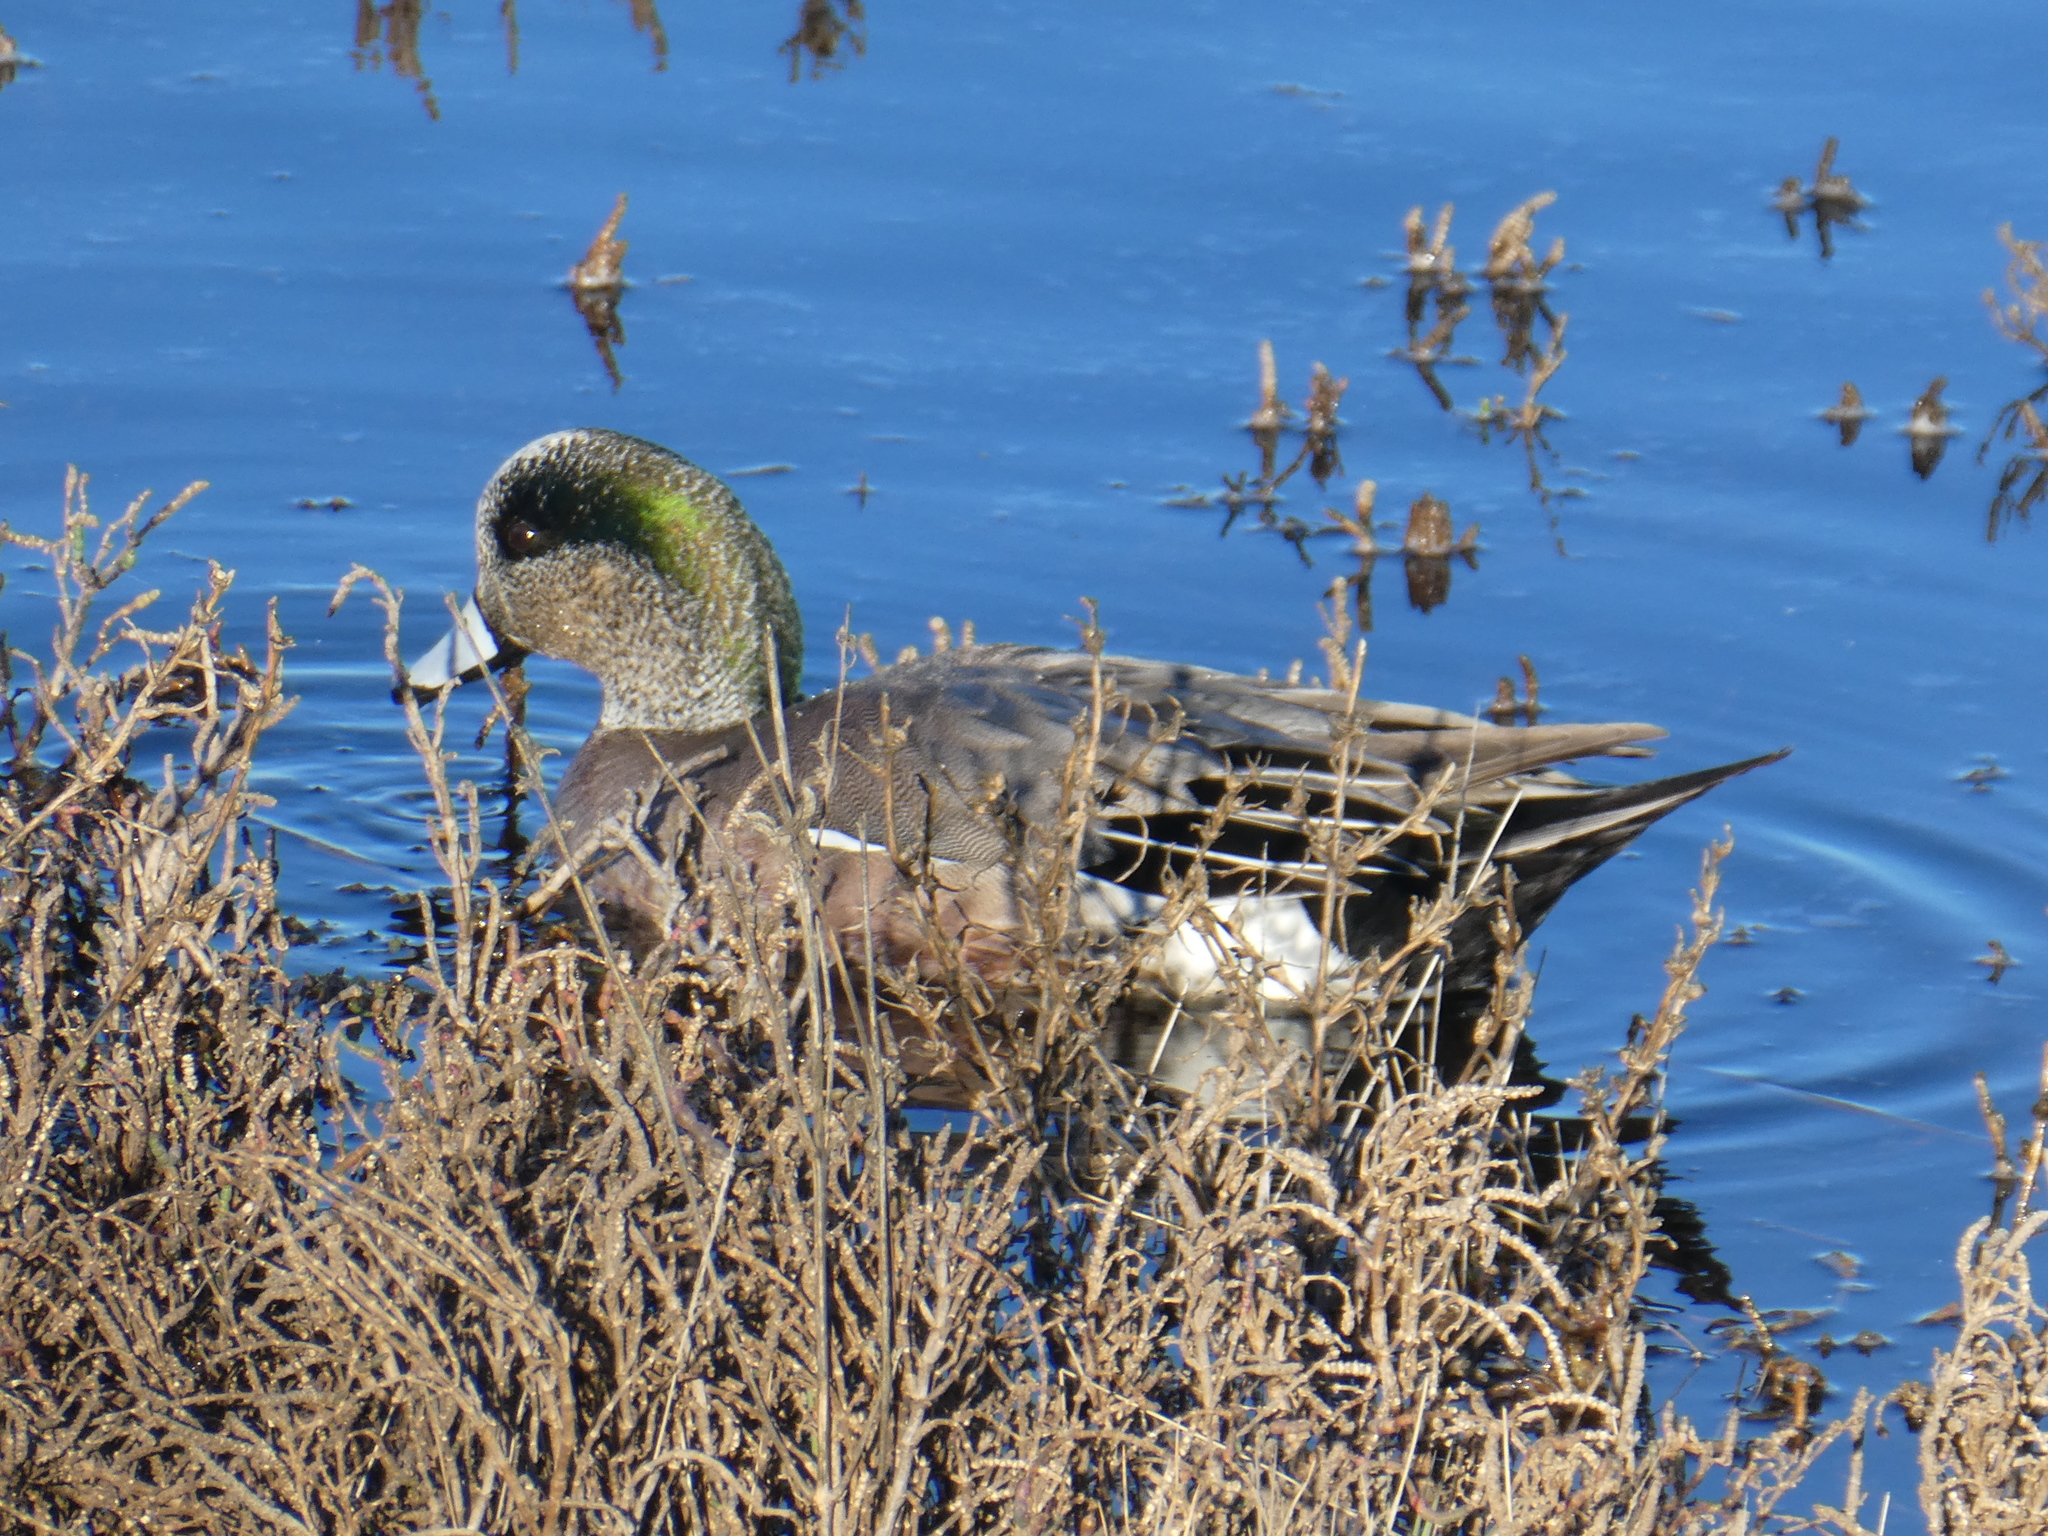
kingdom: Animalia
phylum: Chordata
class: Aves
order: Anseriformes
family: Anatidae
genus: Mareca
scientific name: Mareca americana
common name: American wigeon
